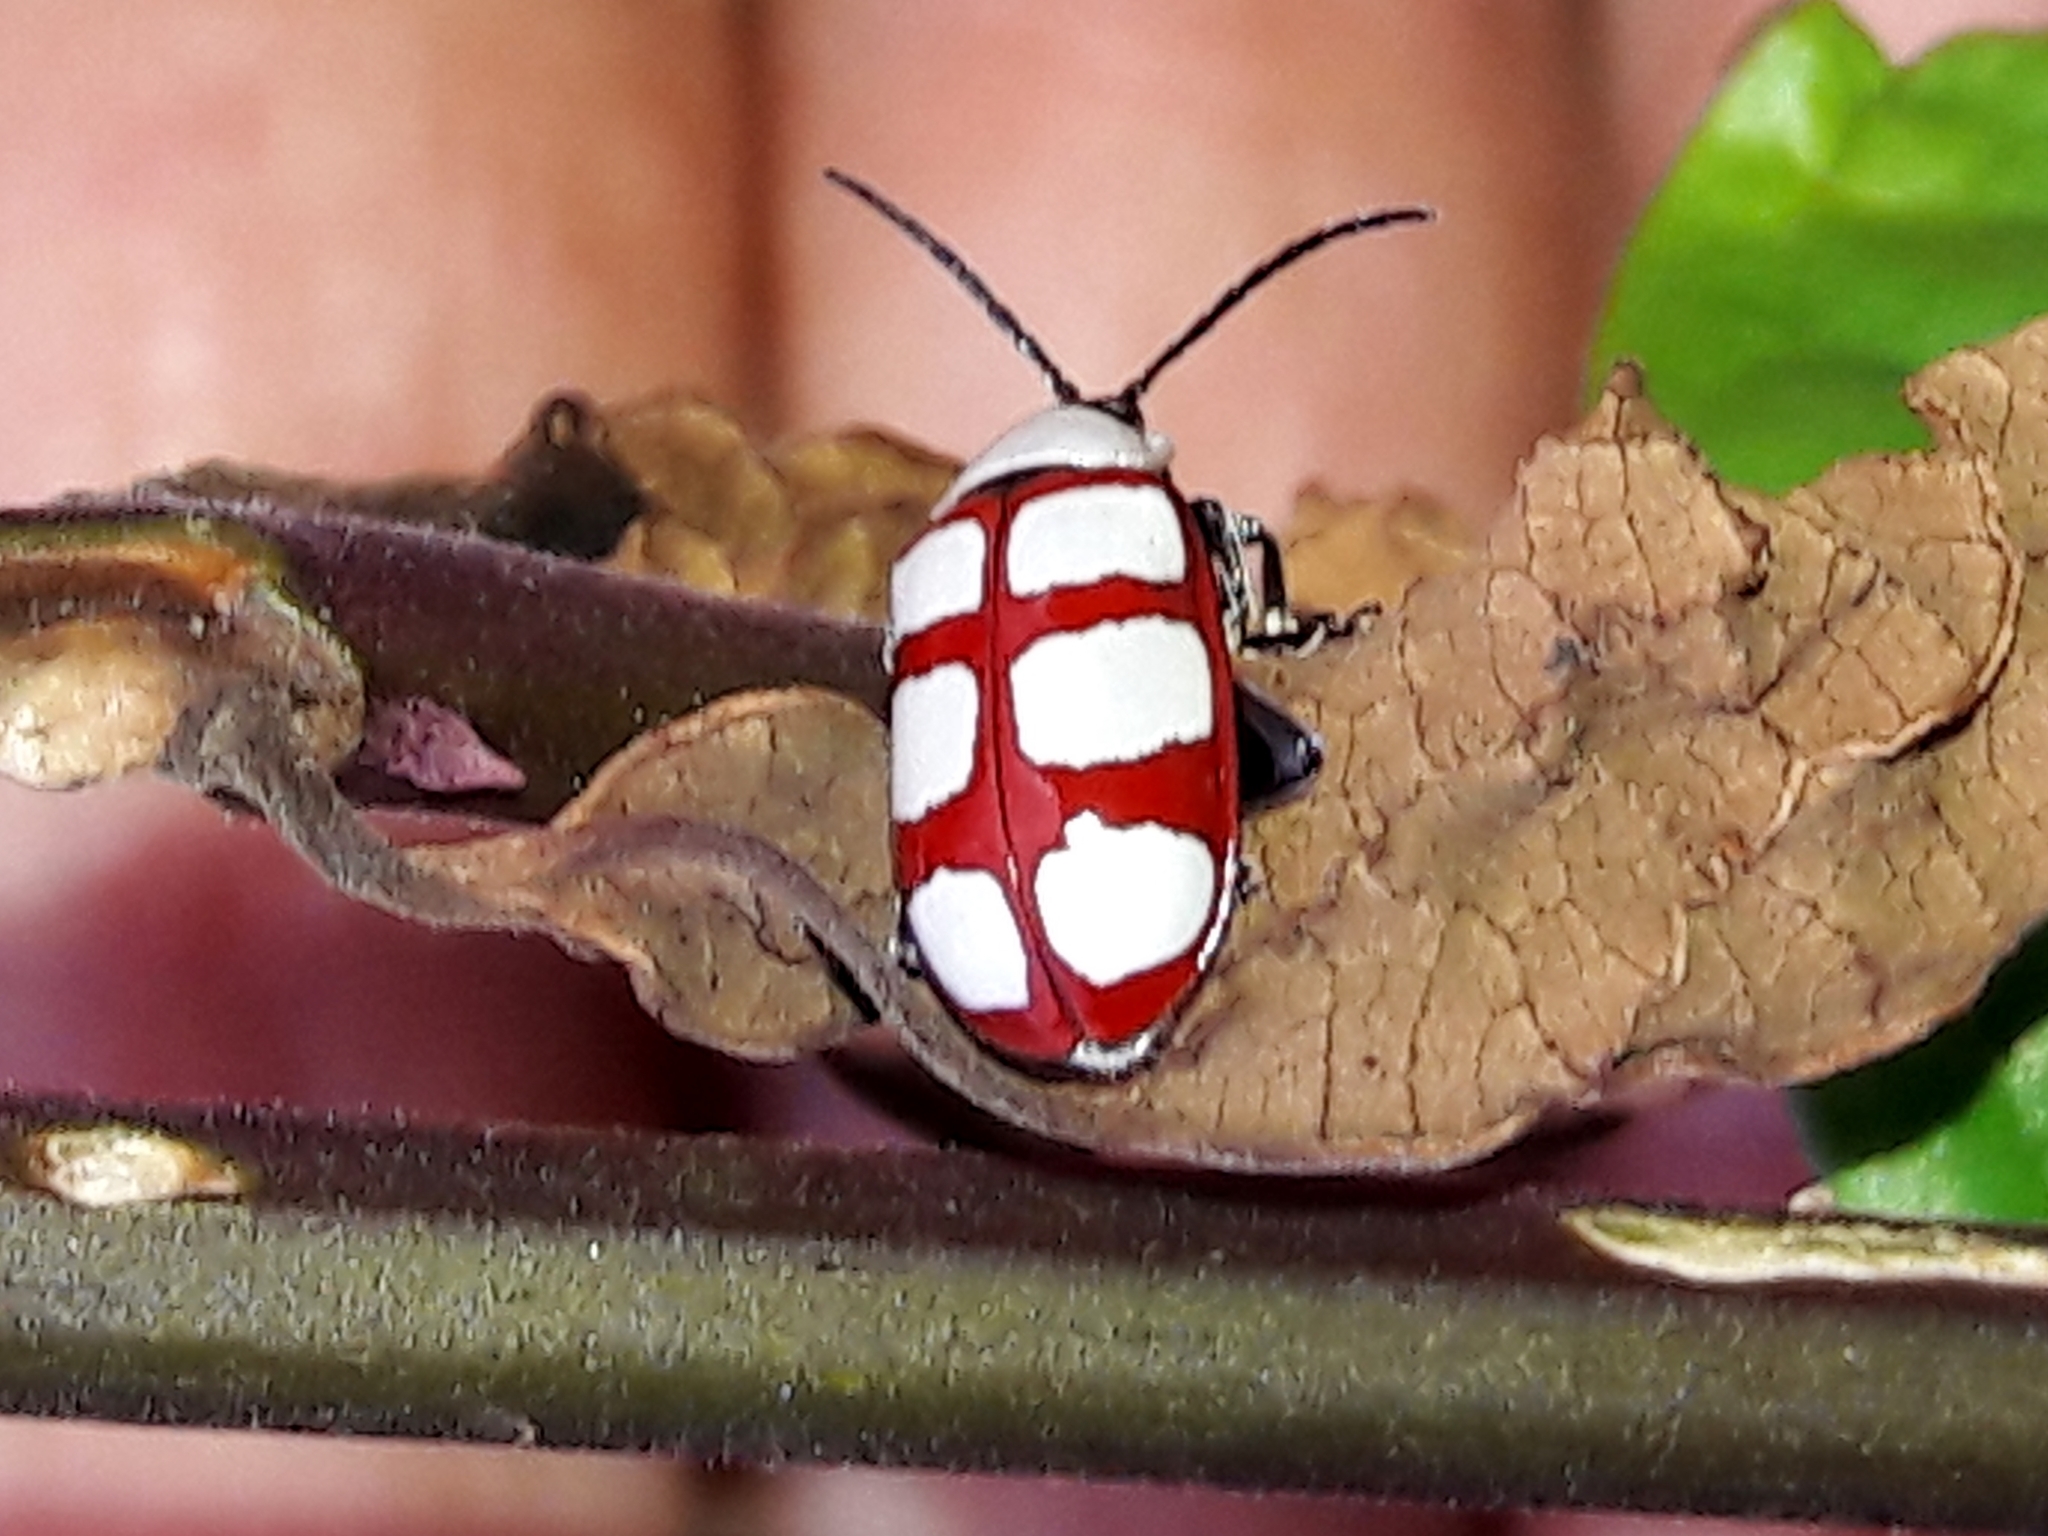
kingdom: Animalia
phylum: Arthropoda
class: Insecta
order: Coleoptera
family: Chrysomelidae
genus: Omophoita
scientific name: Omophoita personata
